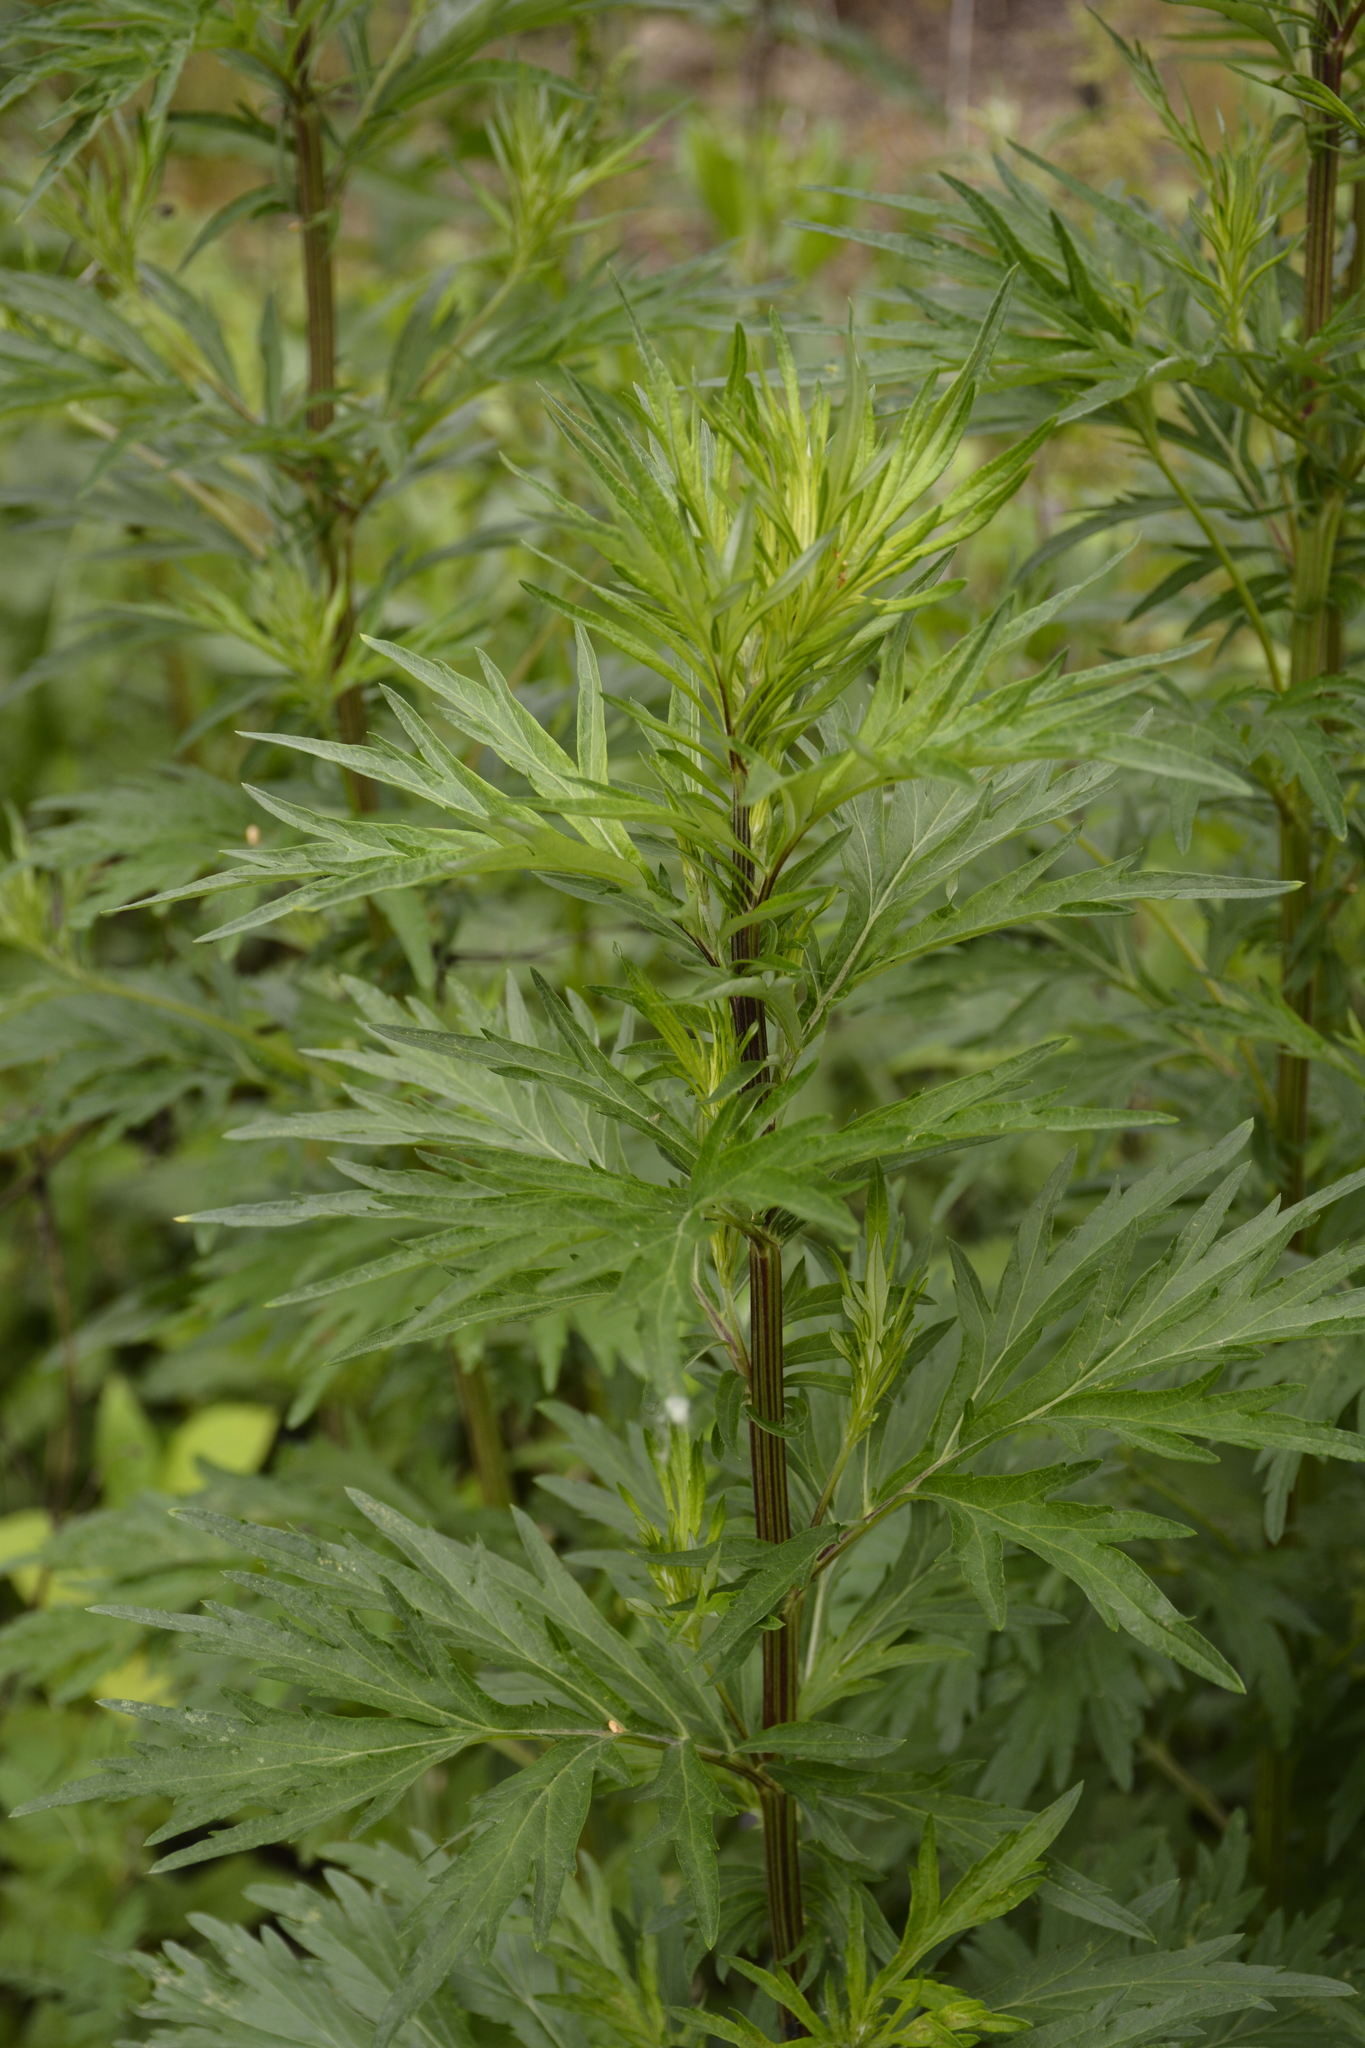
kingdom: Plantae
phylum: Tracheophyta
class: Magnoliopsida
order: Asterales
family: Asteraceae
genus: Artemisia
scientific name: Artemisia vulgaris
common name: Mugwort
